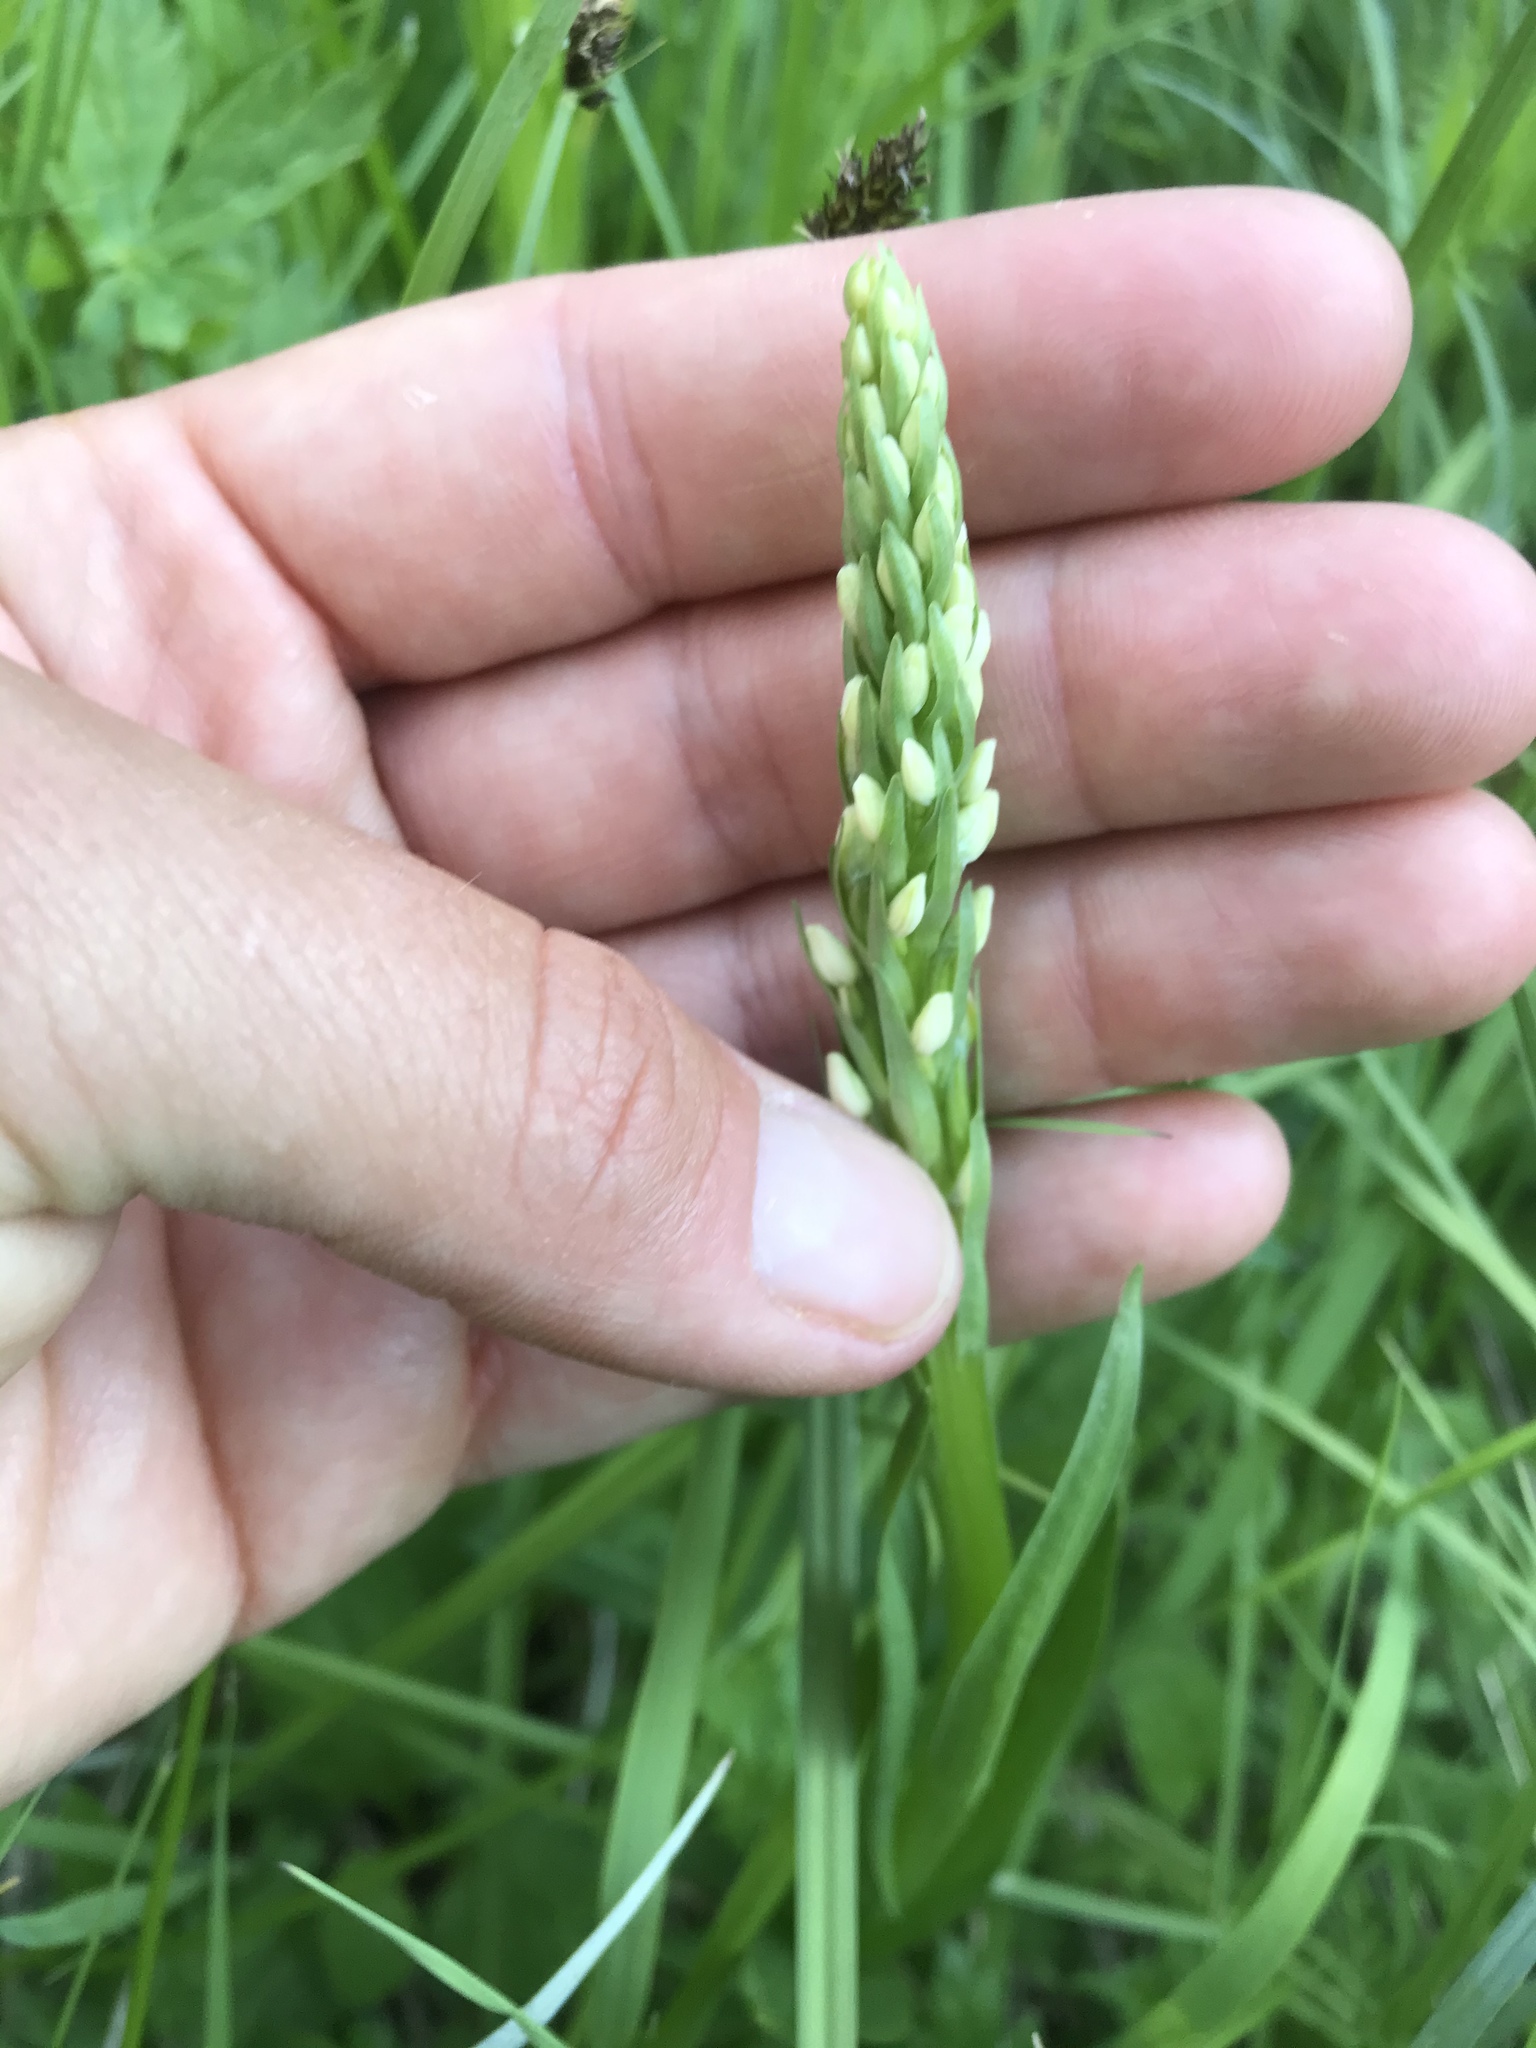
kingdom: Plantae
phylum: Tracheophyta
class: Liliopsida
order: Asparagales
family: Orchidaceae
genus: Platanthera
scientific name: Platanthera dilatata
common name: Bog candles
